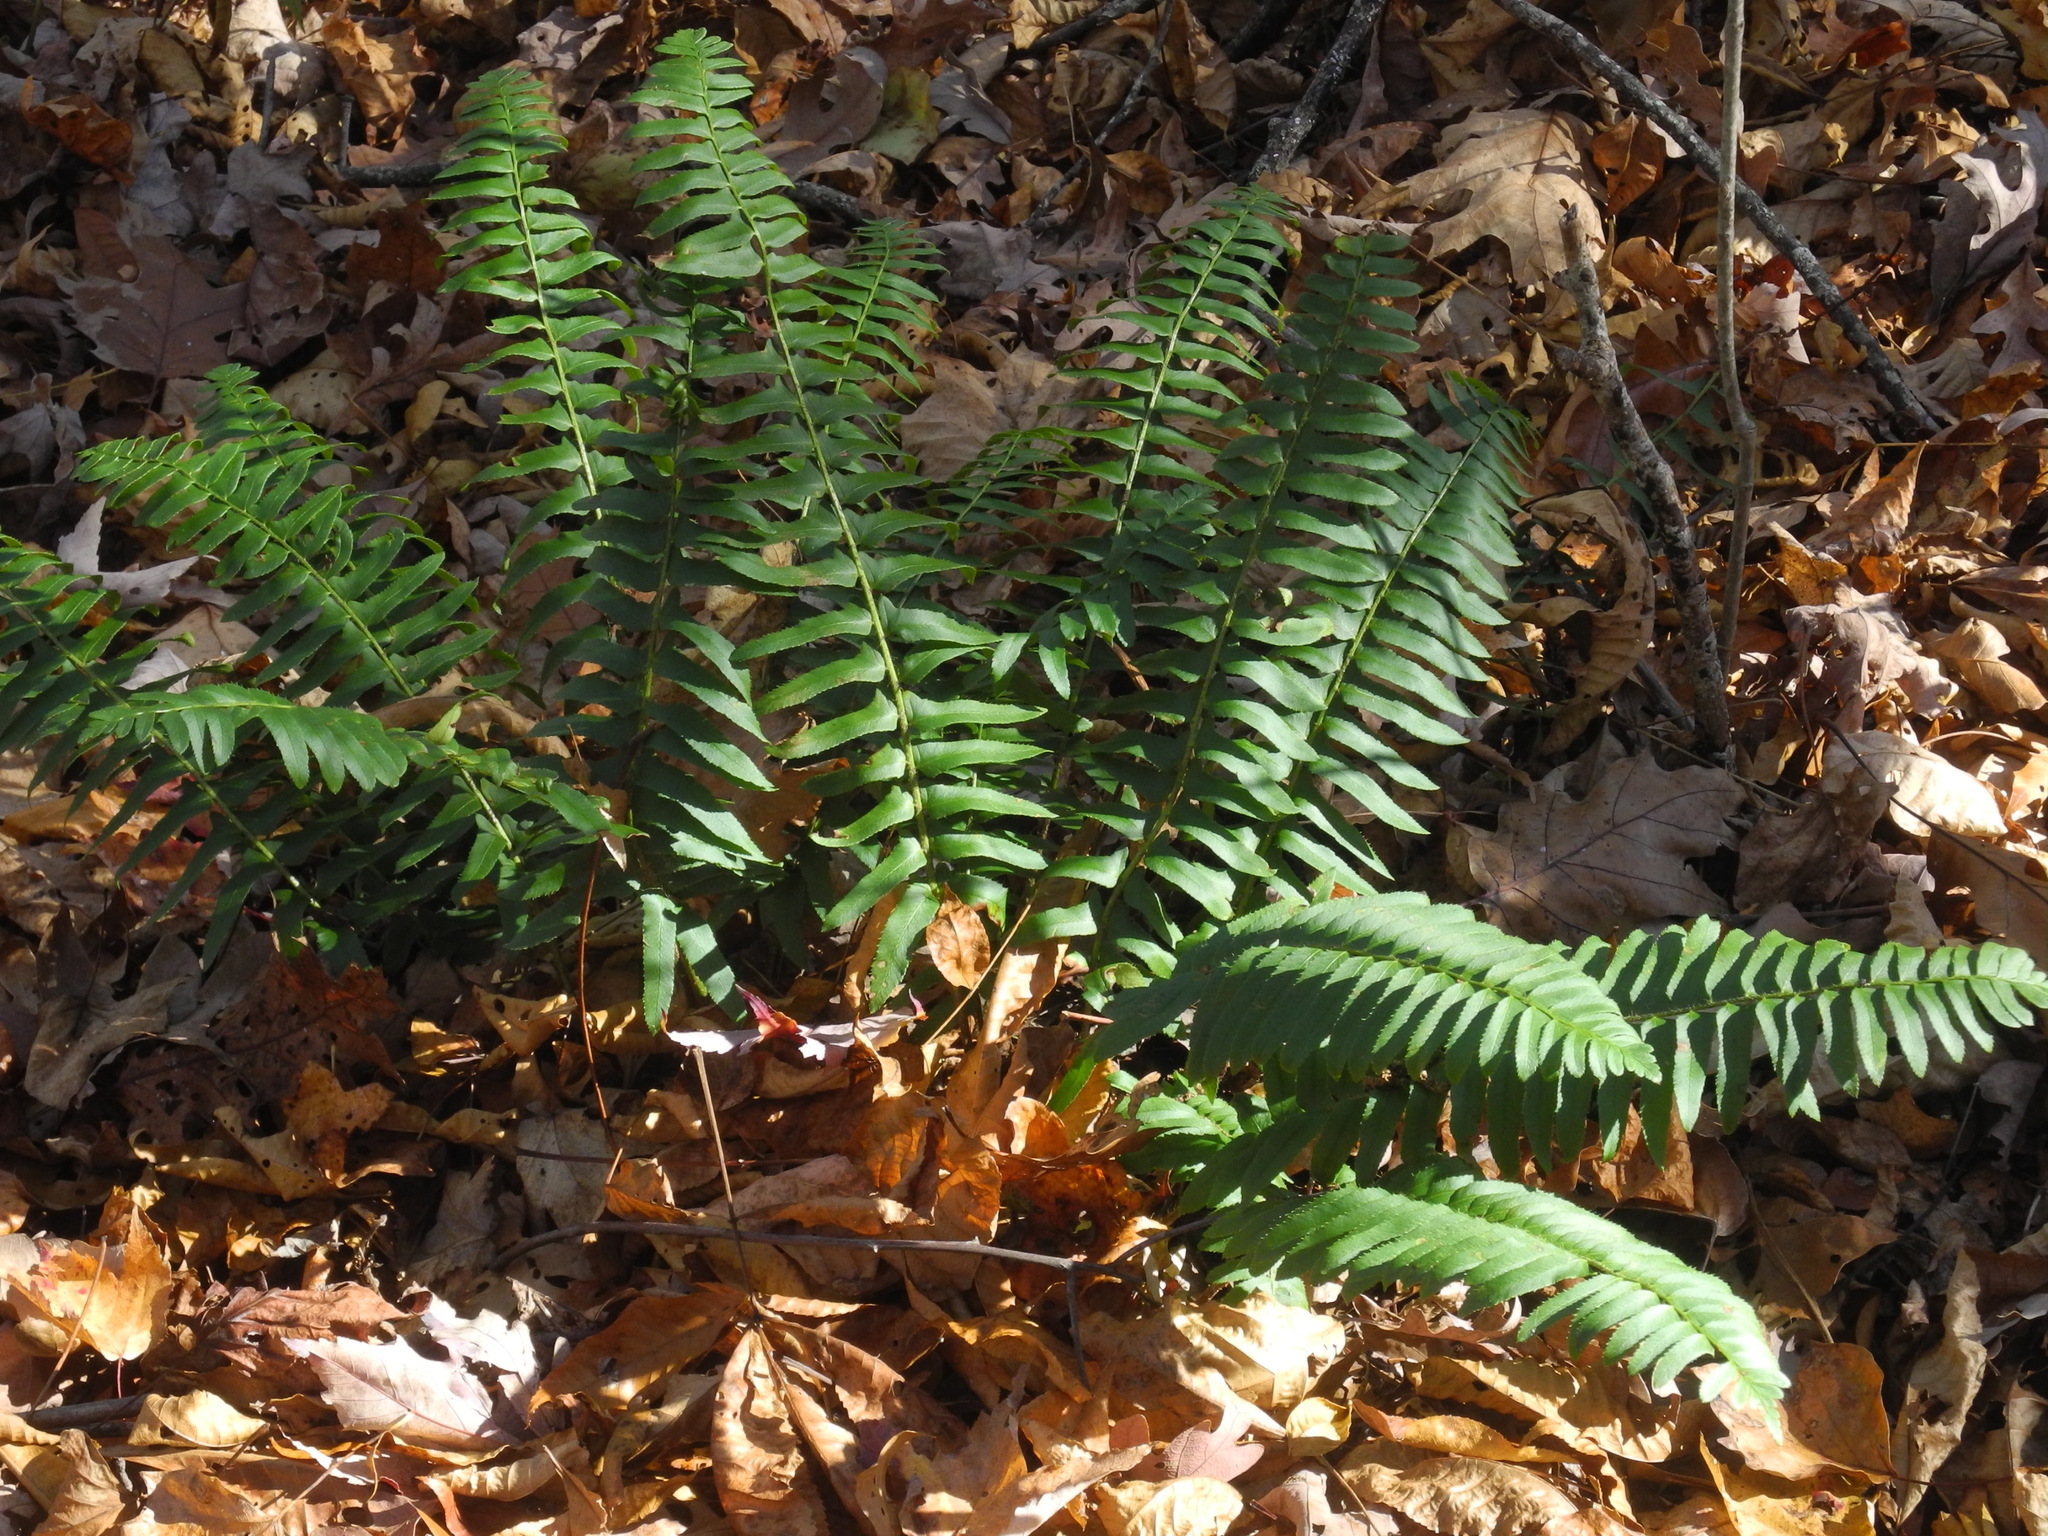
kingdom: Plantae
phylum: Tracheophyta
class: Polypodiopsida
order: Polypodiales
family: Dryopteridaceae
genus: Polystichum
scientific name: Polystichum acrostichoides
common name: Christmas fern
